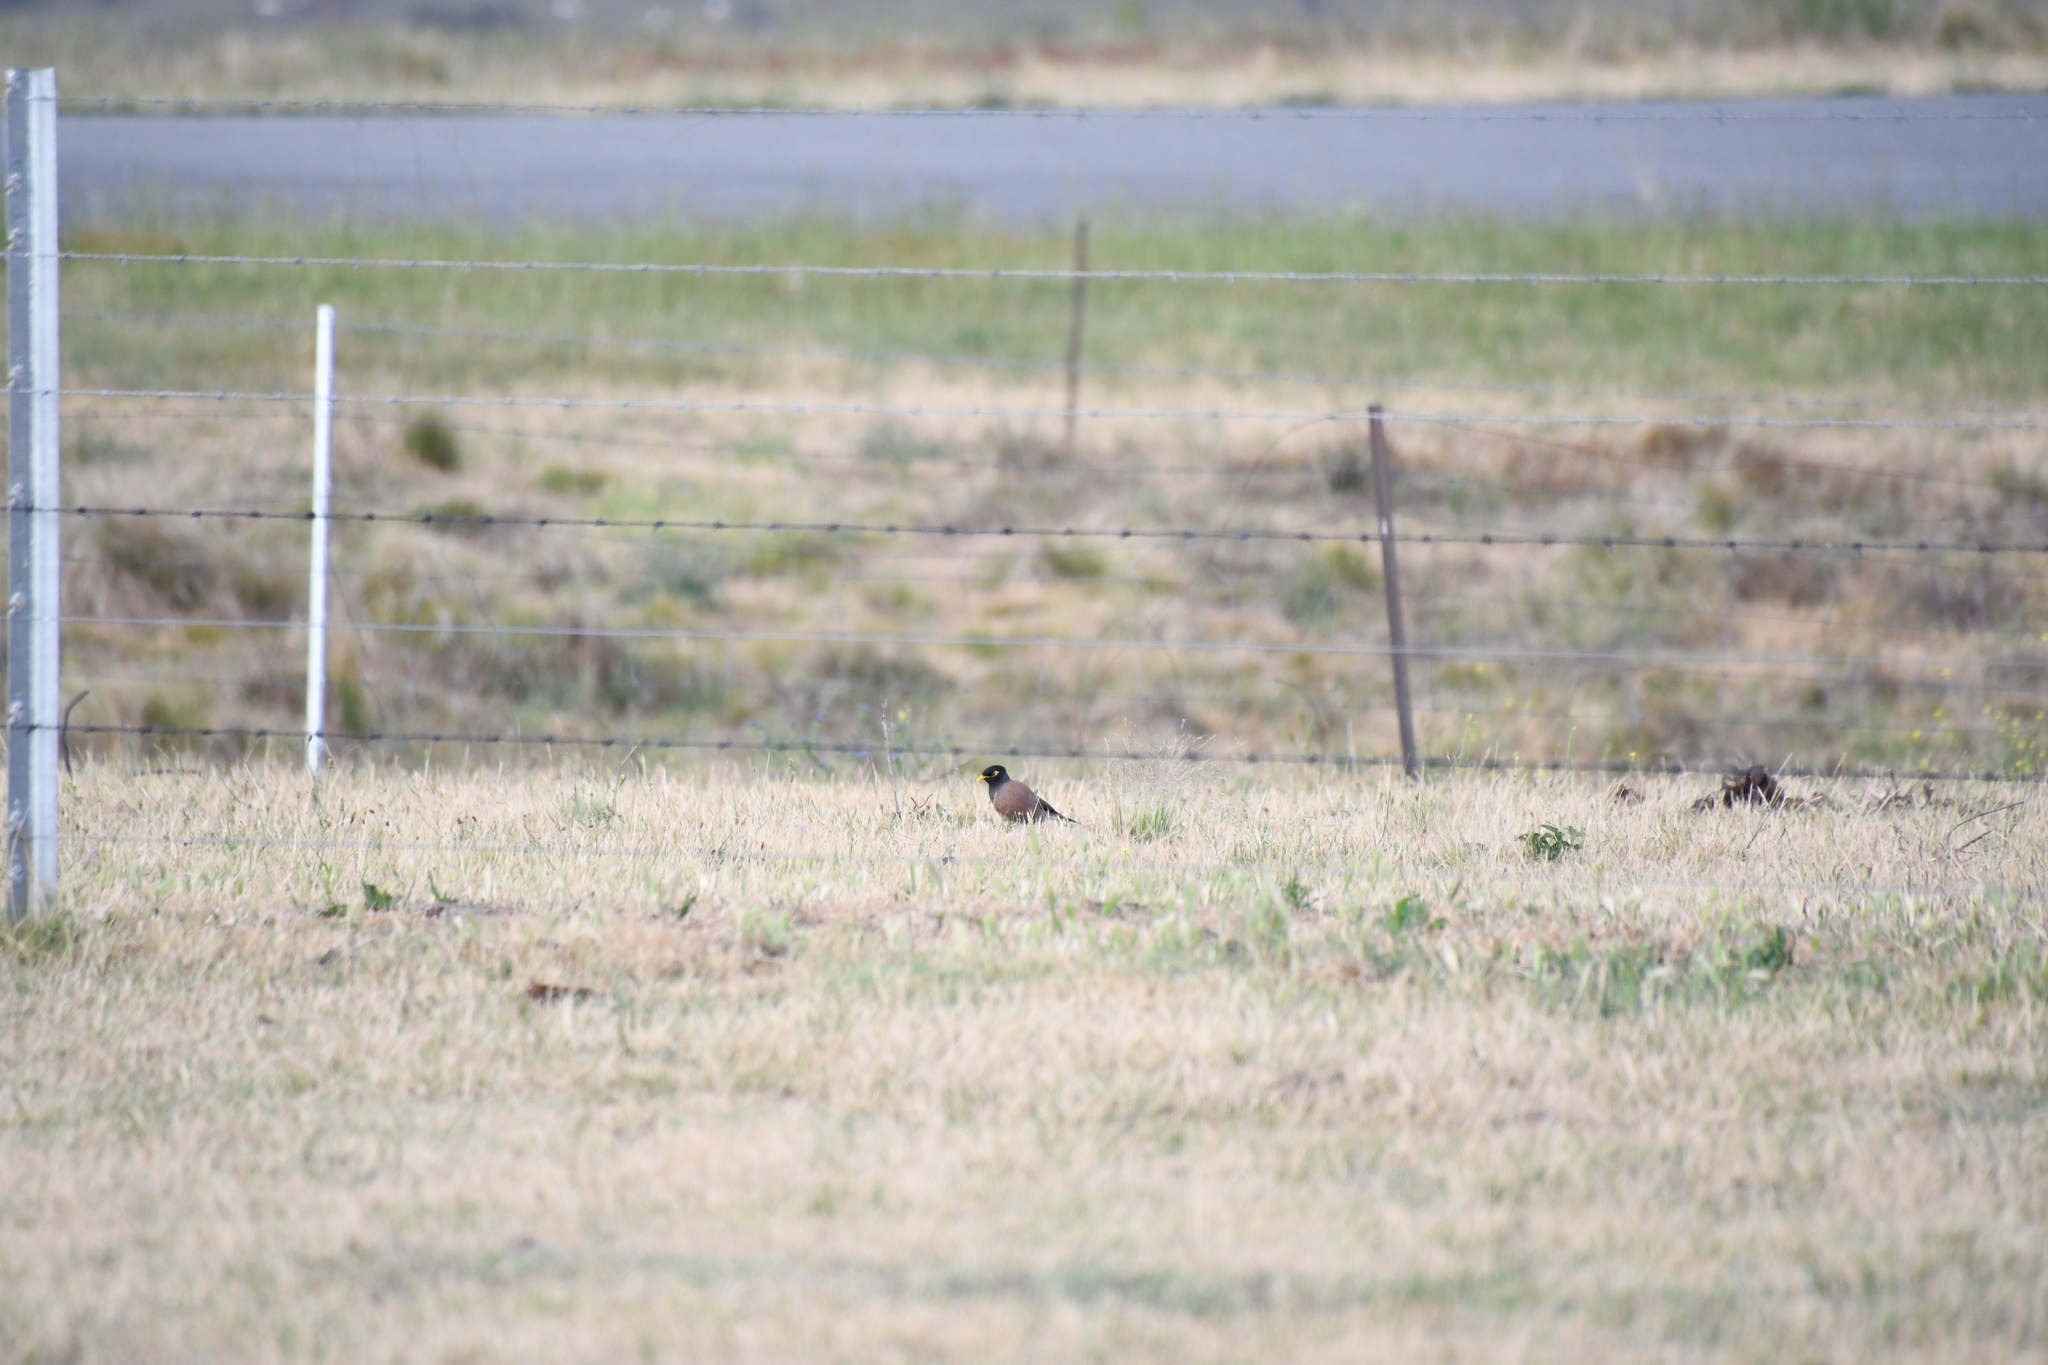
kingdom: Animalia
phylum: Chordata
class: Aves
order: Passeriformes
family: Sturnidae
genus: Acridotheres
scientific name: Acridotheres tristis
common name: Common myna
